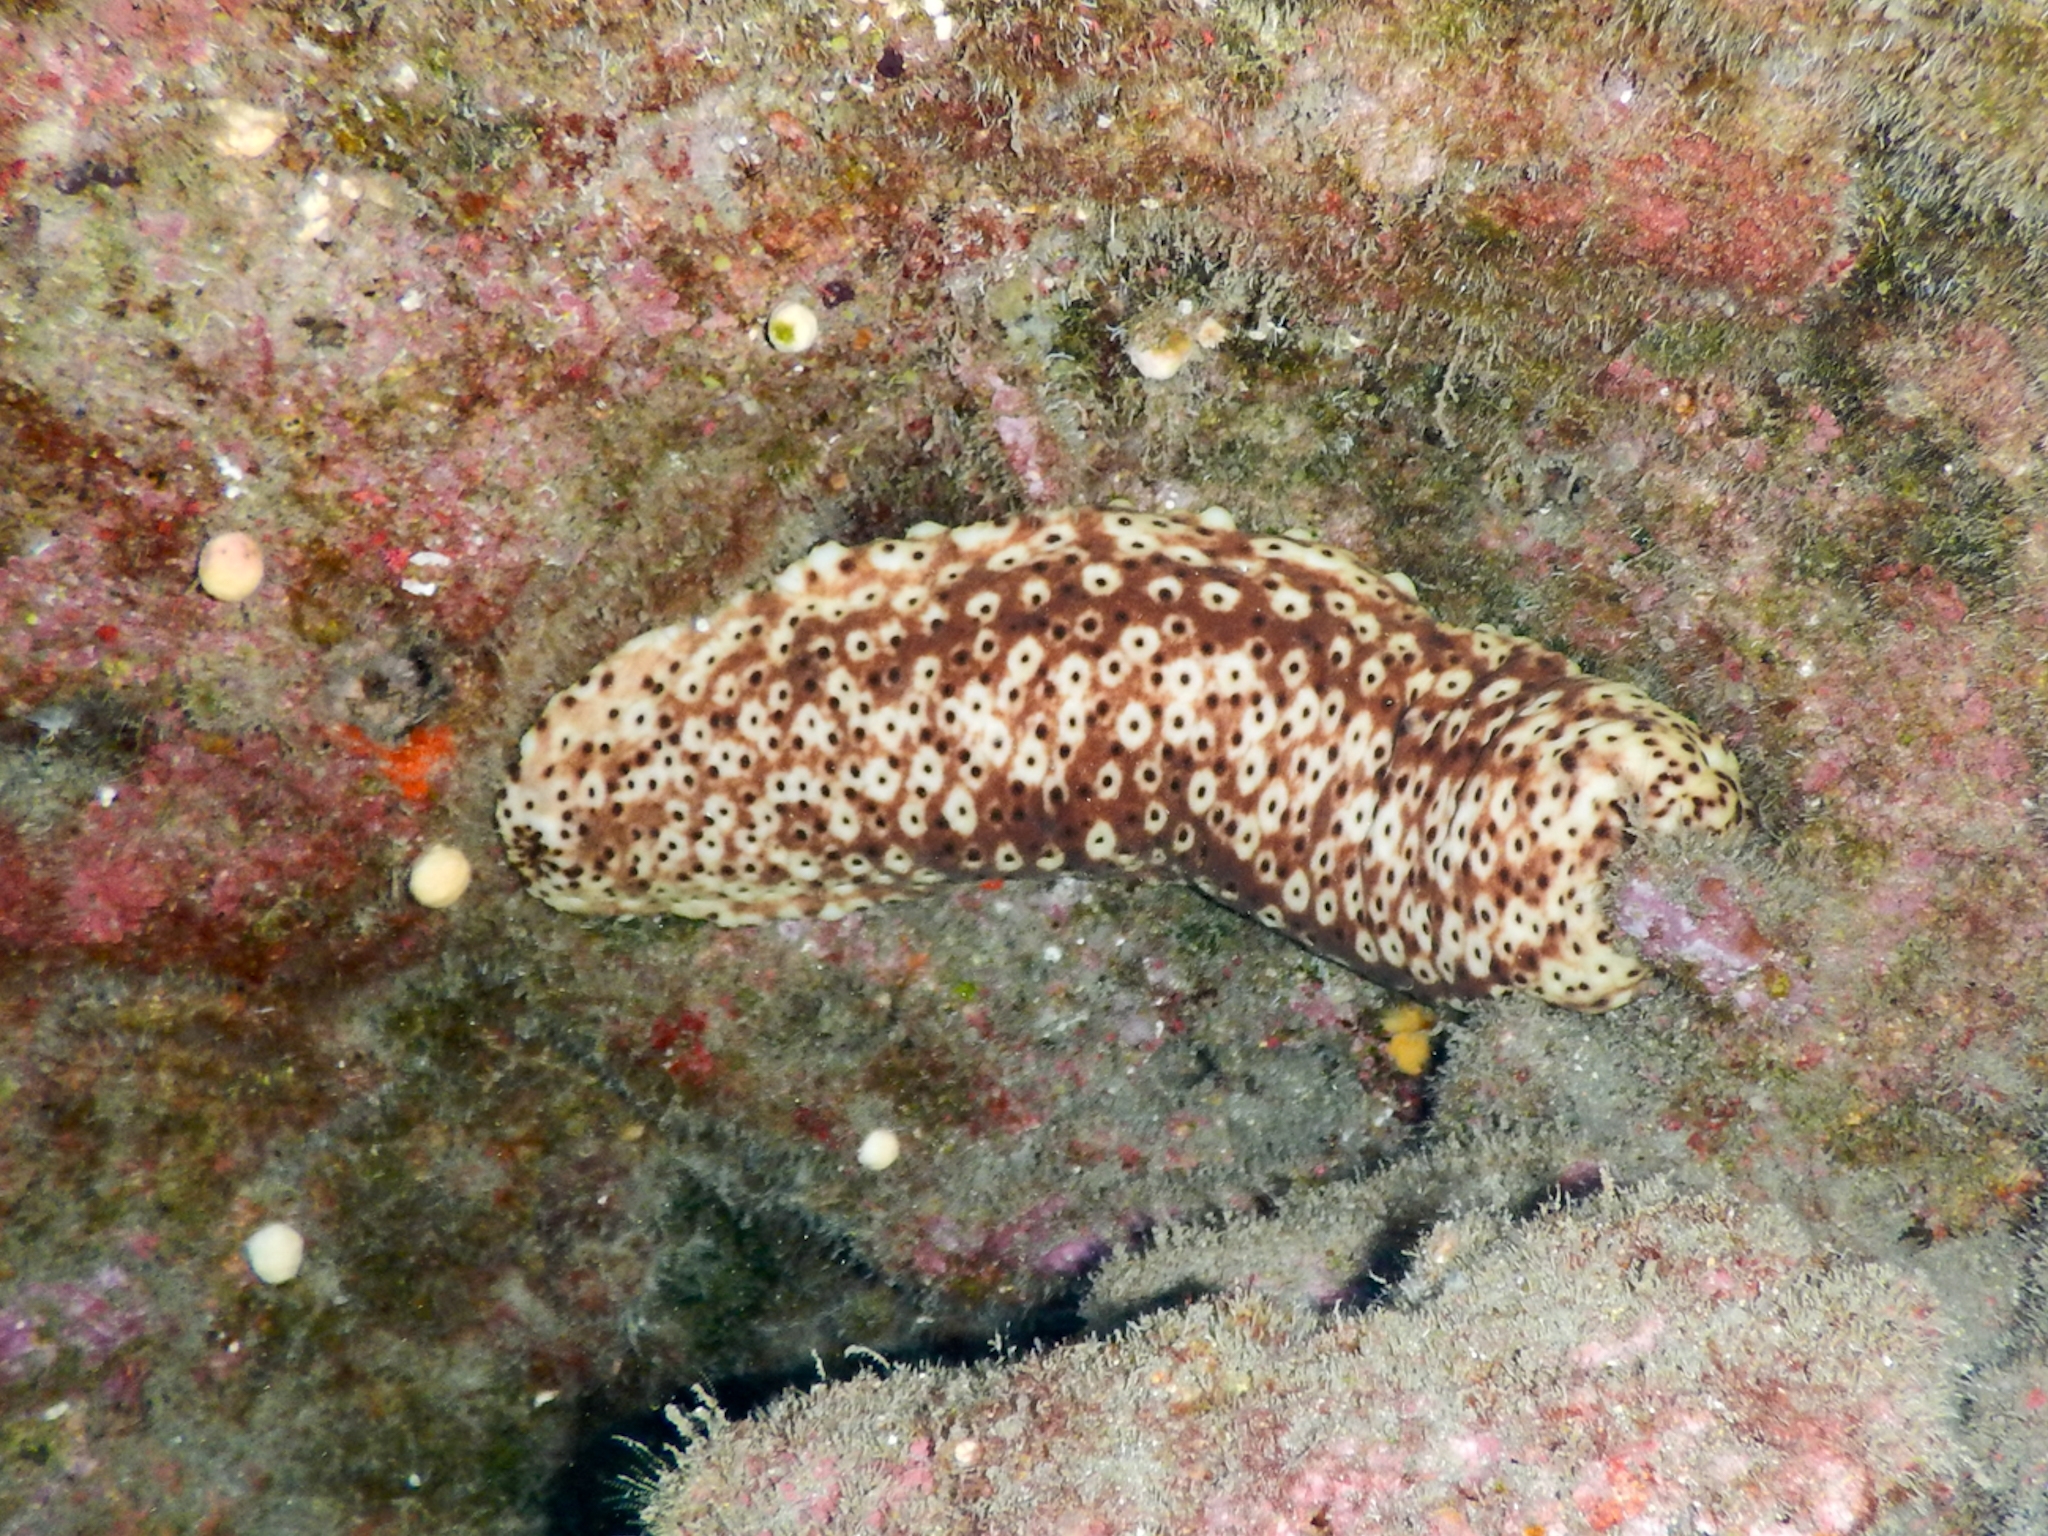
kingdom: Animalia
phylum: Echinodermata
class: Holothuroidea
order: Holothuriida
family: Holothuriidae
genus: Holothuria
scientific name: Holothuria sanctori
